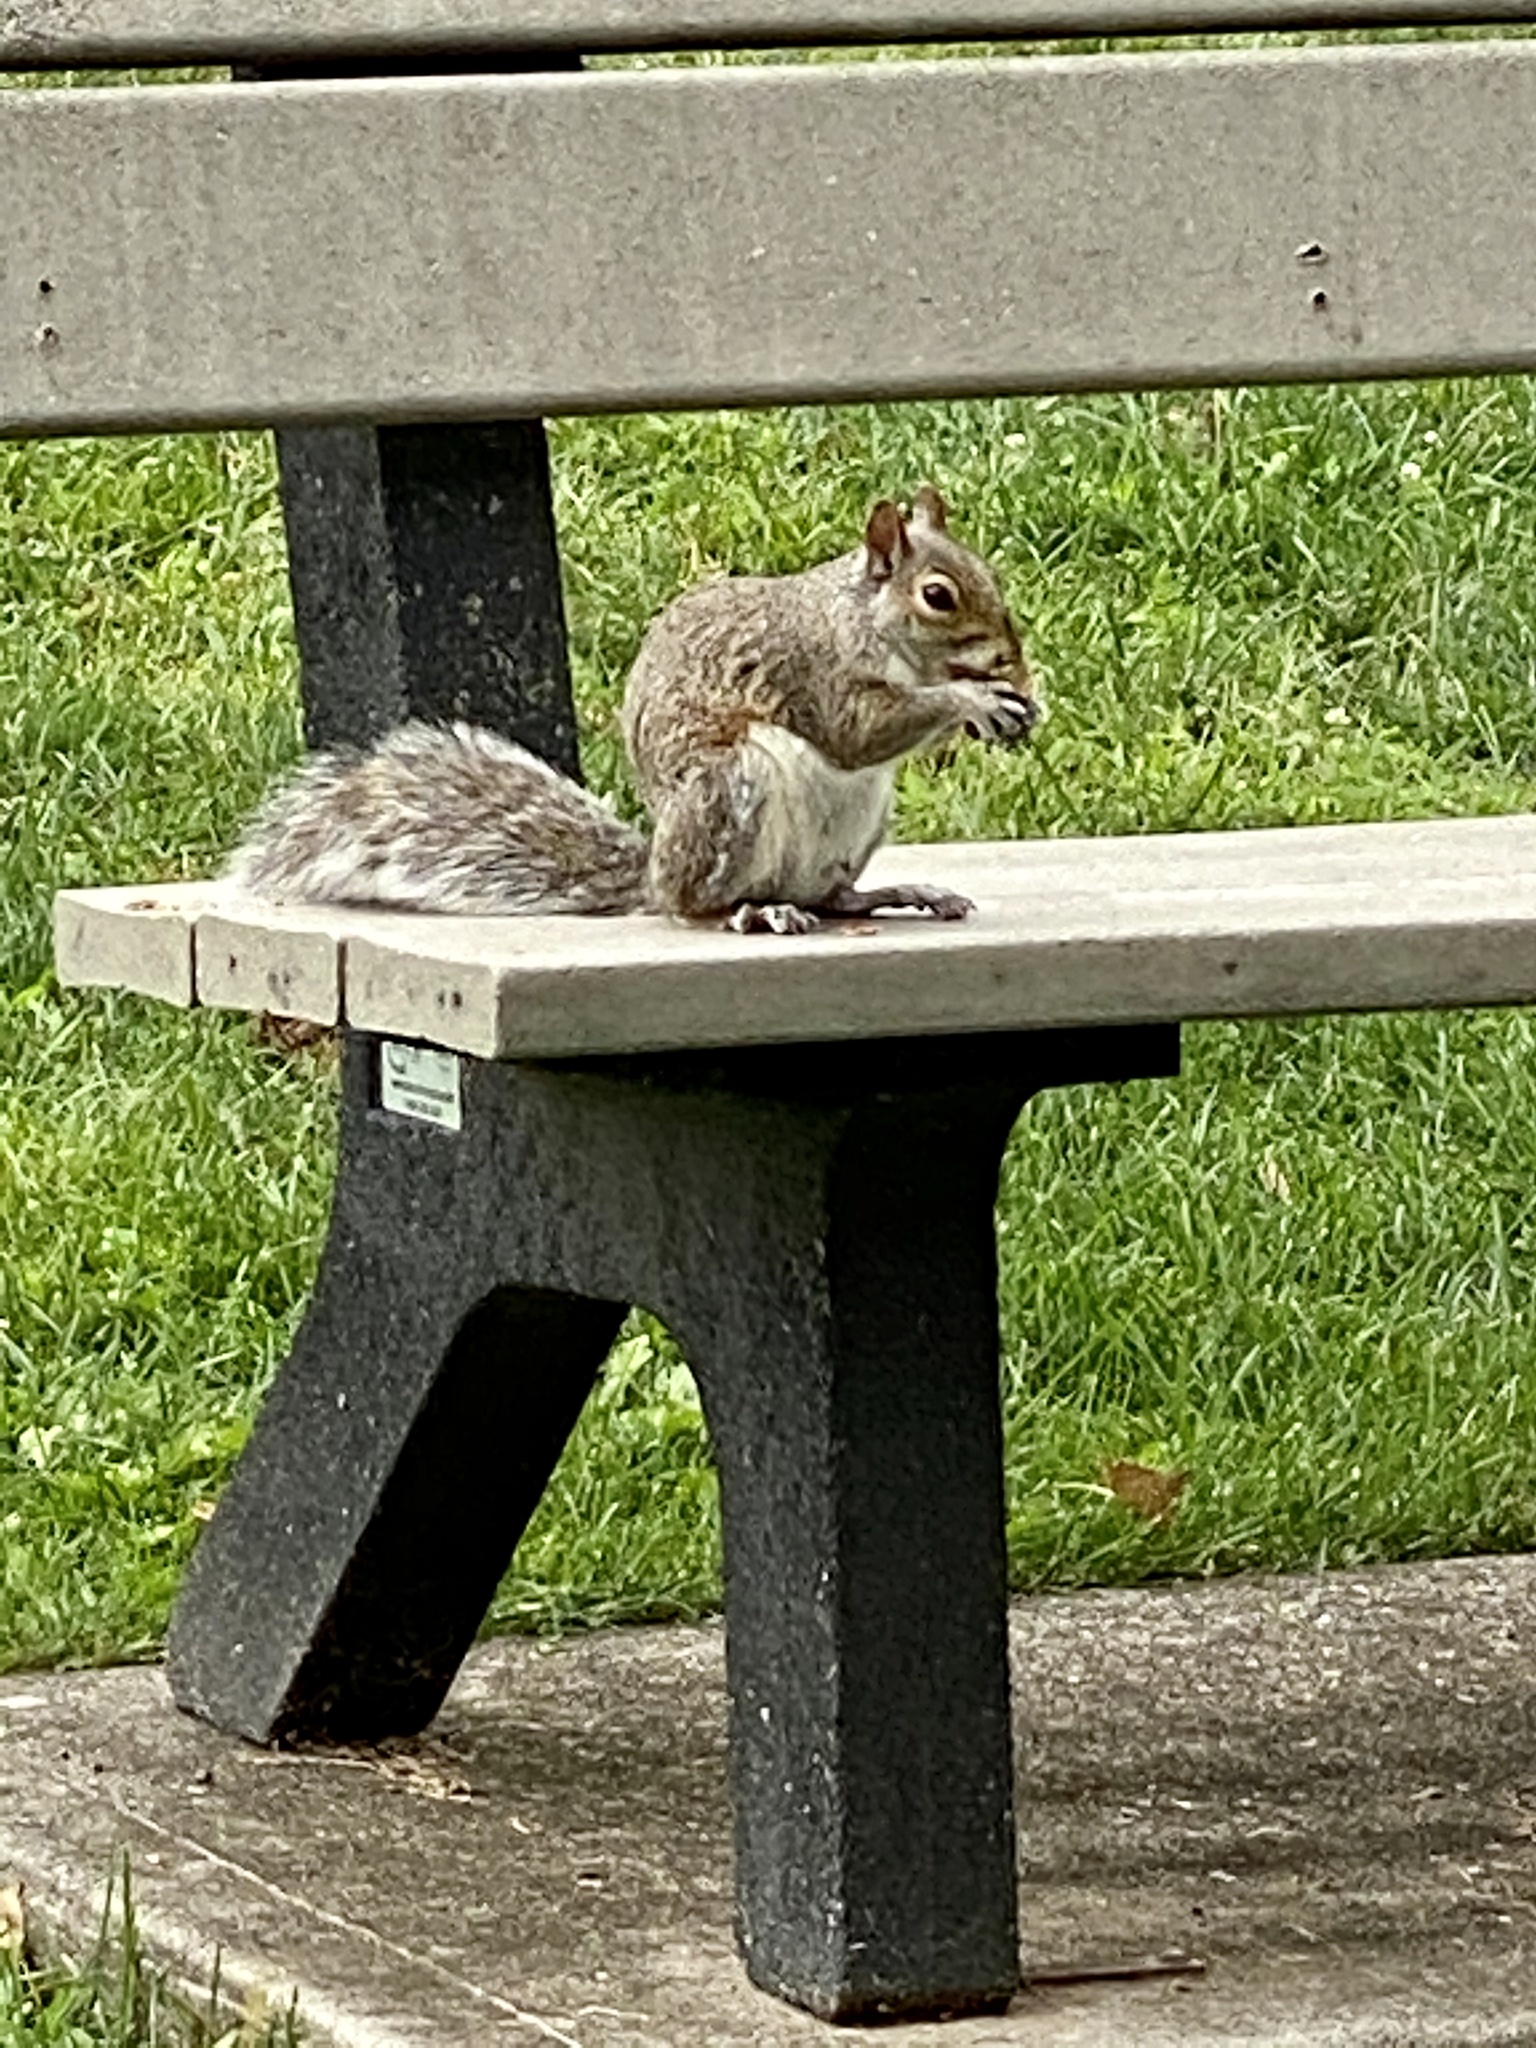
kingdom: Animalia
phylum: Chordata
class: Mammalia
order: Rodentia
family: Sciuridae
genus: Sciurus
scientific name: Sciurus carolinensis
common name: Eastern gray squirrel
